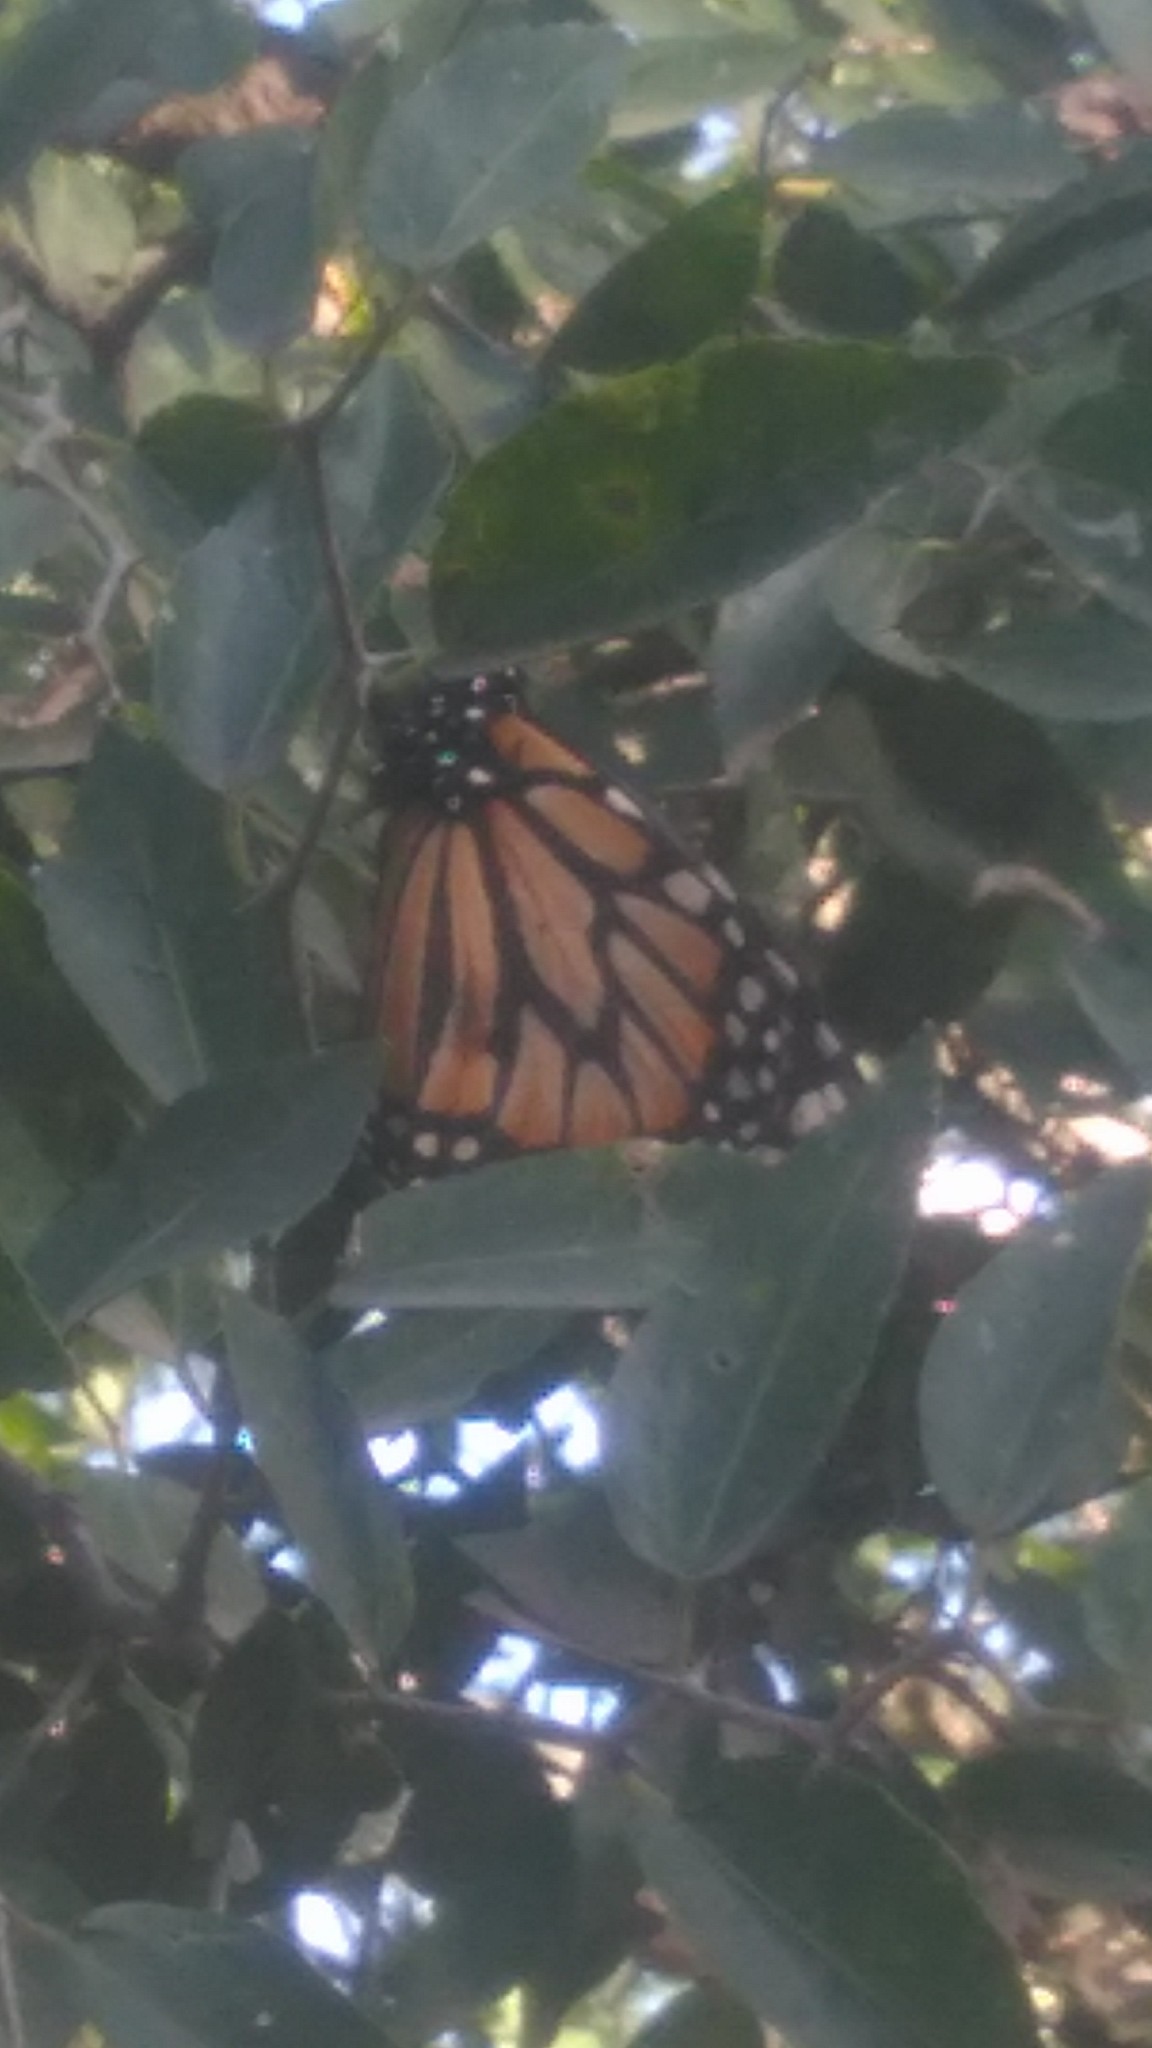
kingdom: Animalia
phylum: Arthropoda
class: Insecta
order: Lepidoptera
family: Nymphalidae
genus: Danaus
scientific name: Danaus erippus
